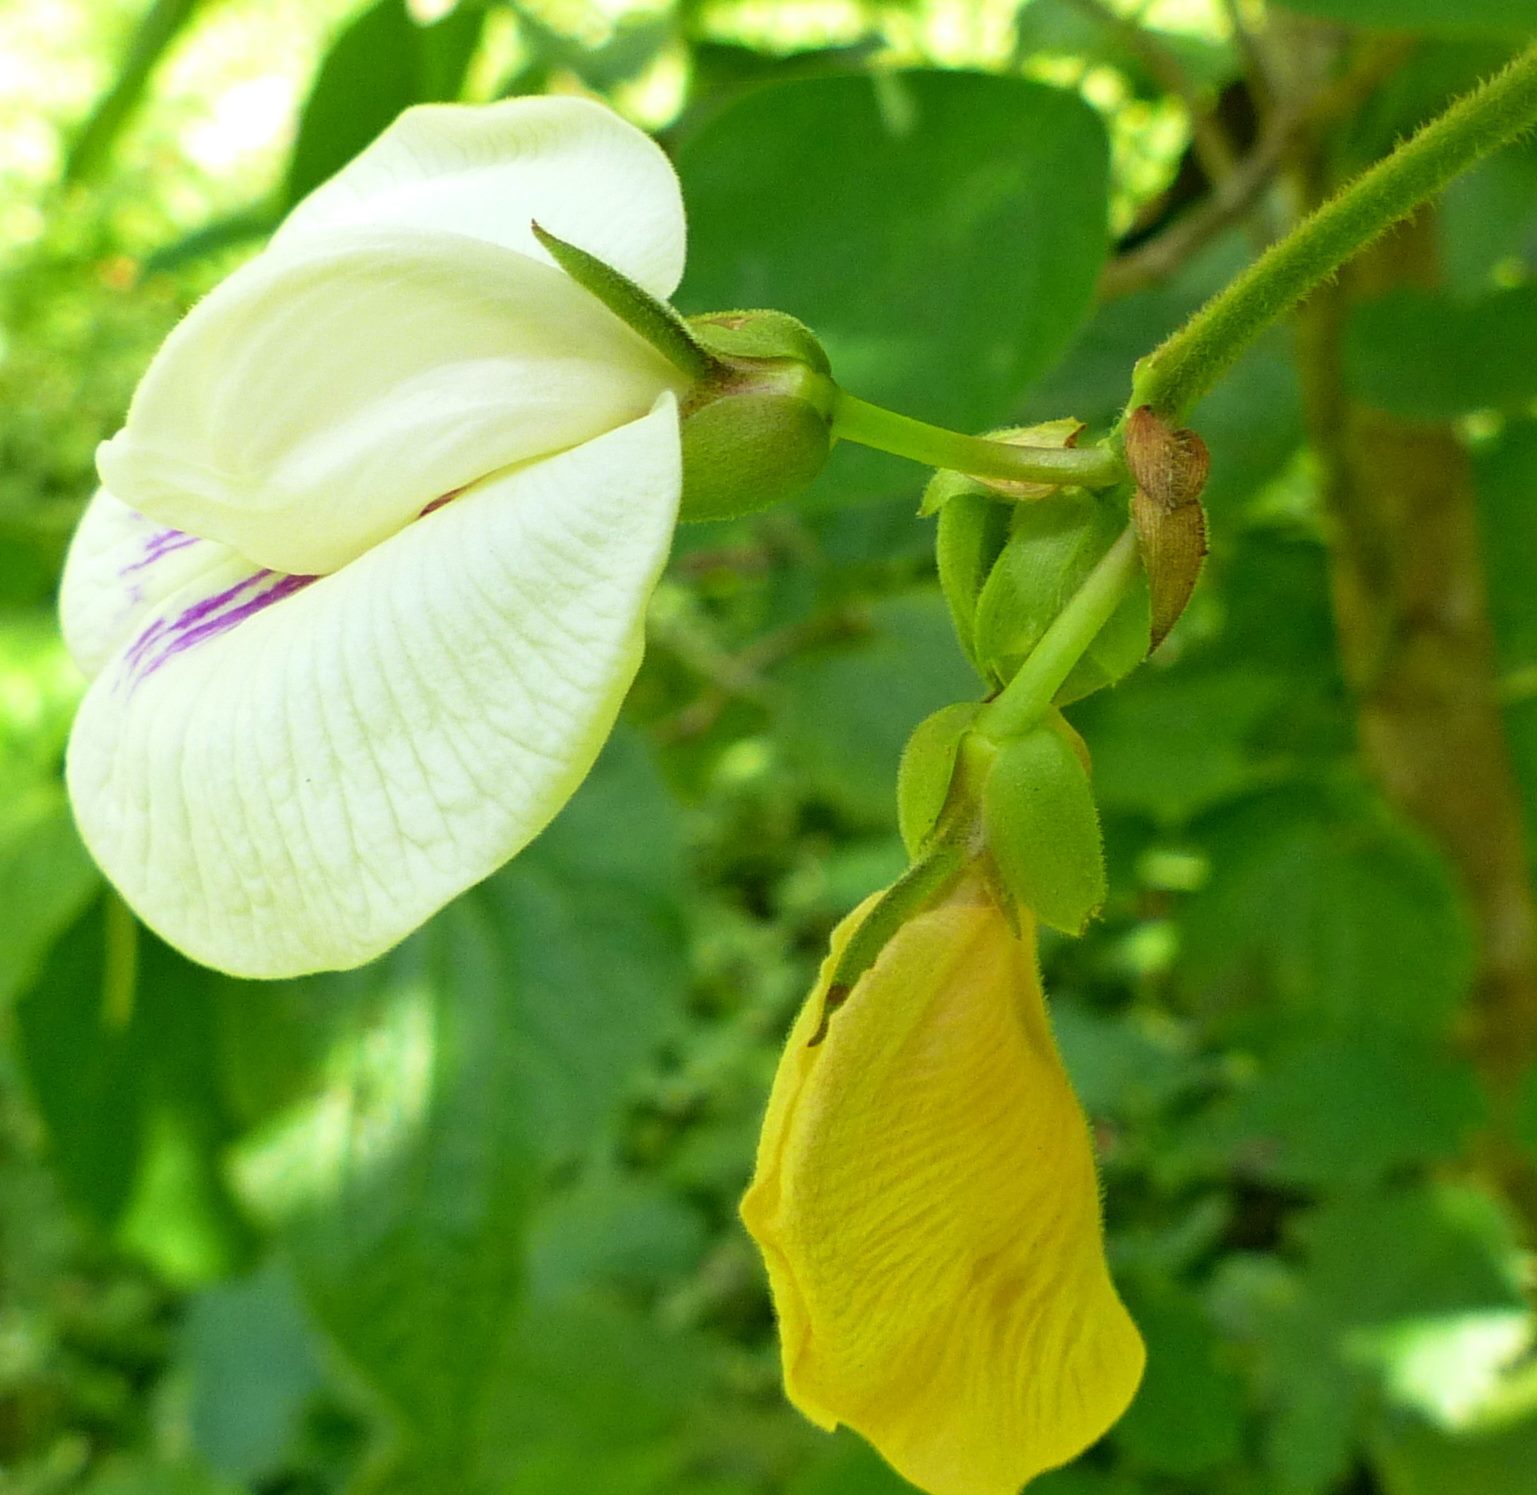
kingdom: Plantae
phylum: Tracheophyta
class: Magnoliopsida
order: Fabales
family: Fabaceae
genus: Centrosema
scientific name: Centrosema pubescens
